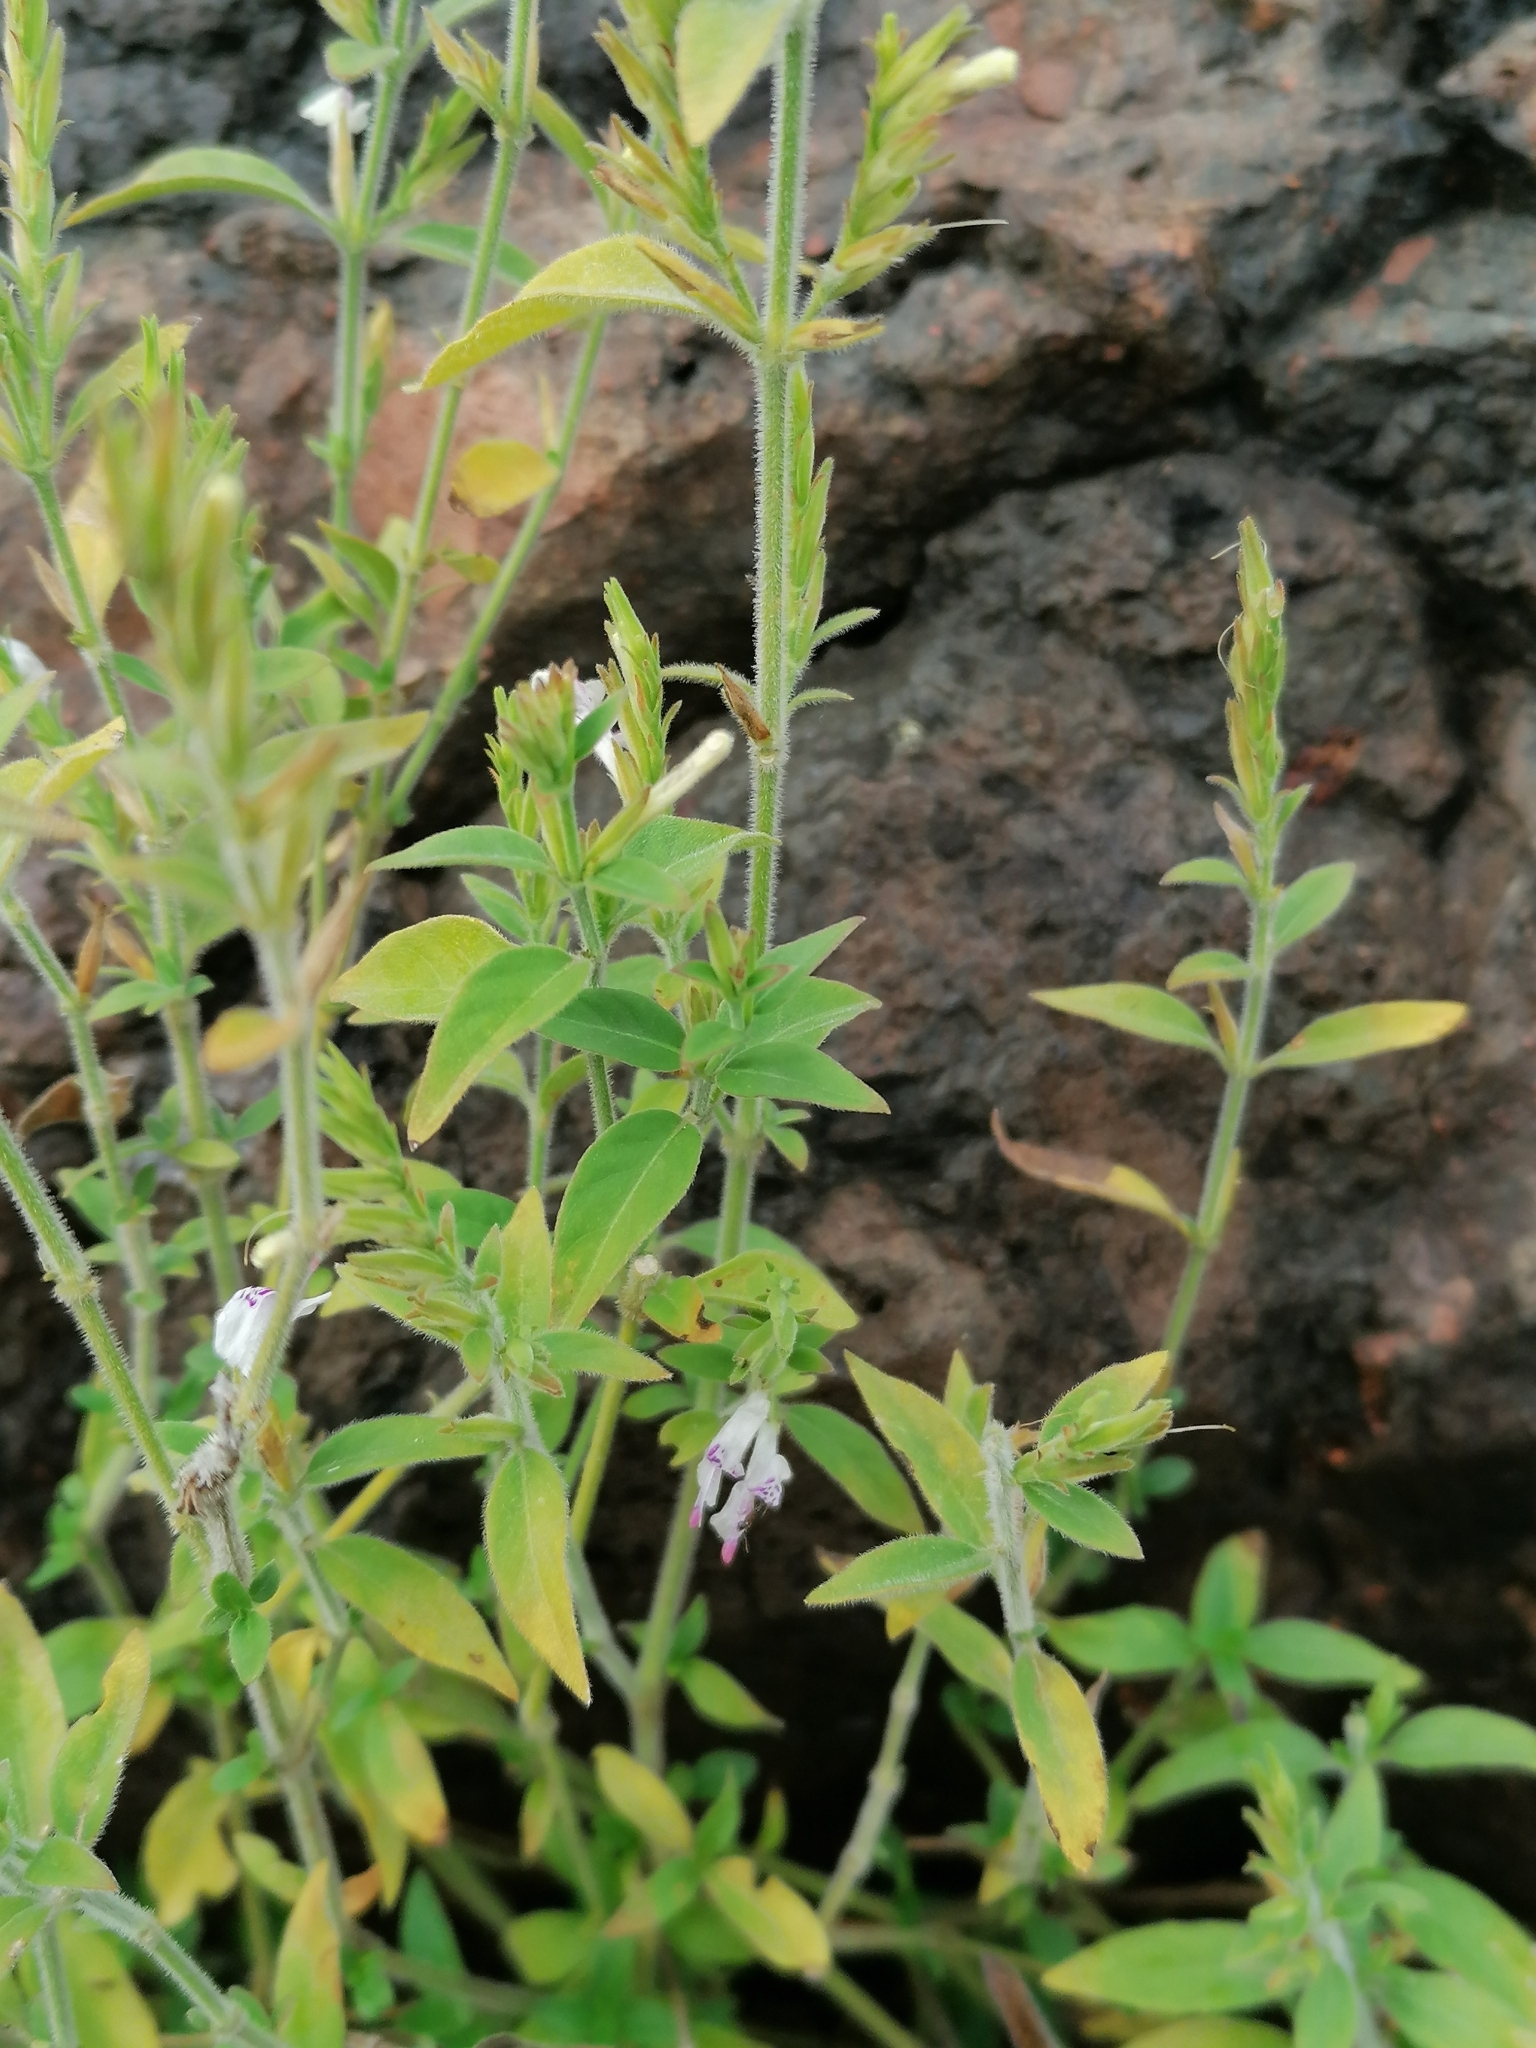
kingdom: Plantae
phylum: Tracheophyta
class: Magnoliopsida
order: Lamiales
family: Acanthaceae
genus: Hypoestes
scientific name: Hypoestes forskaolii
